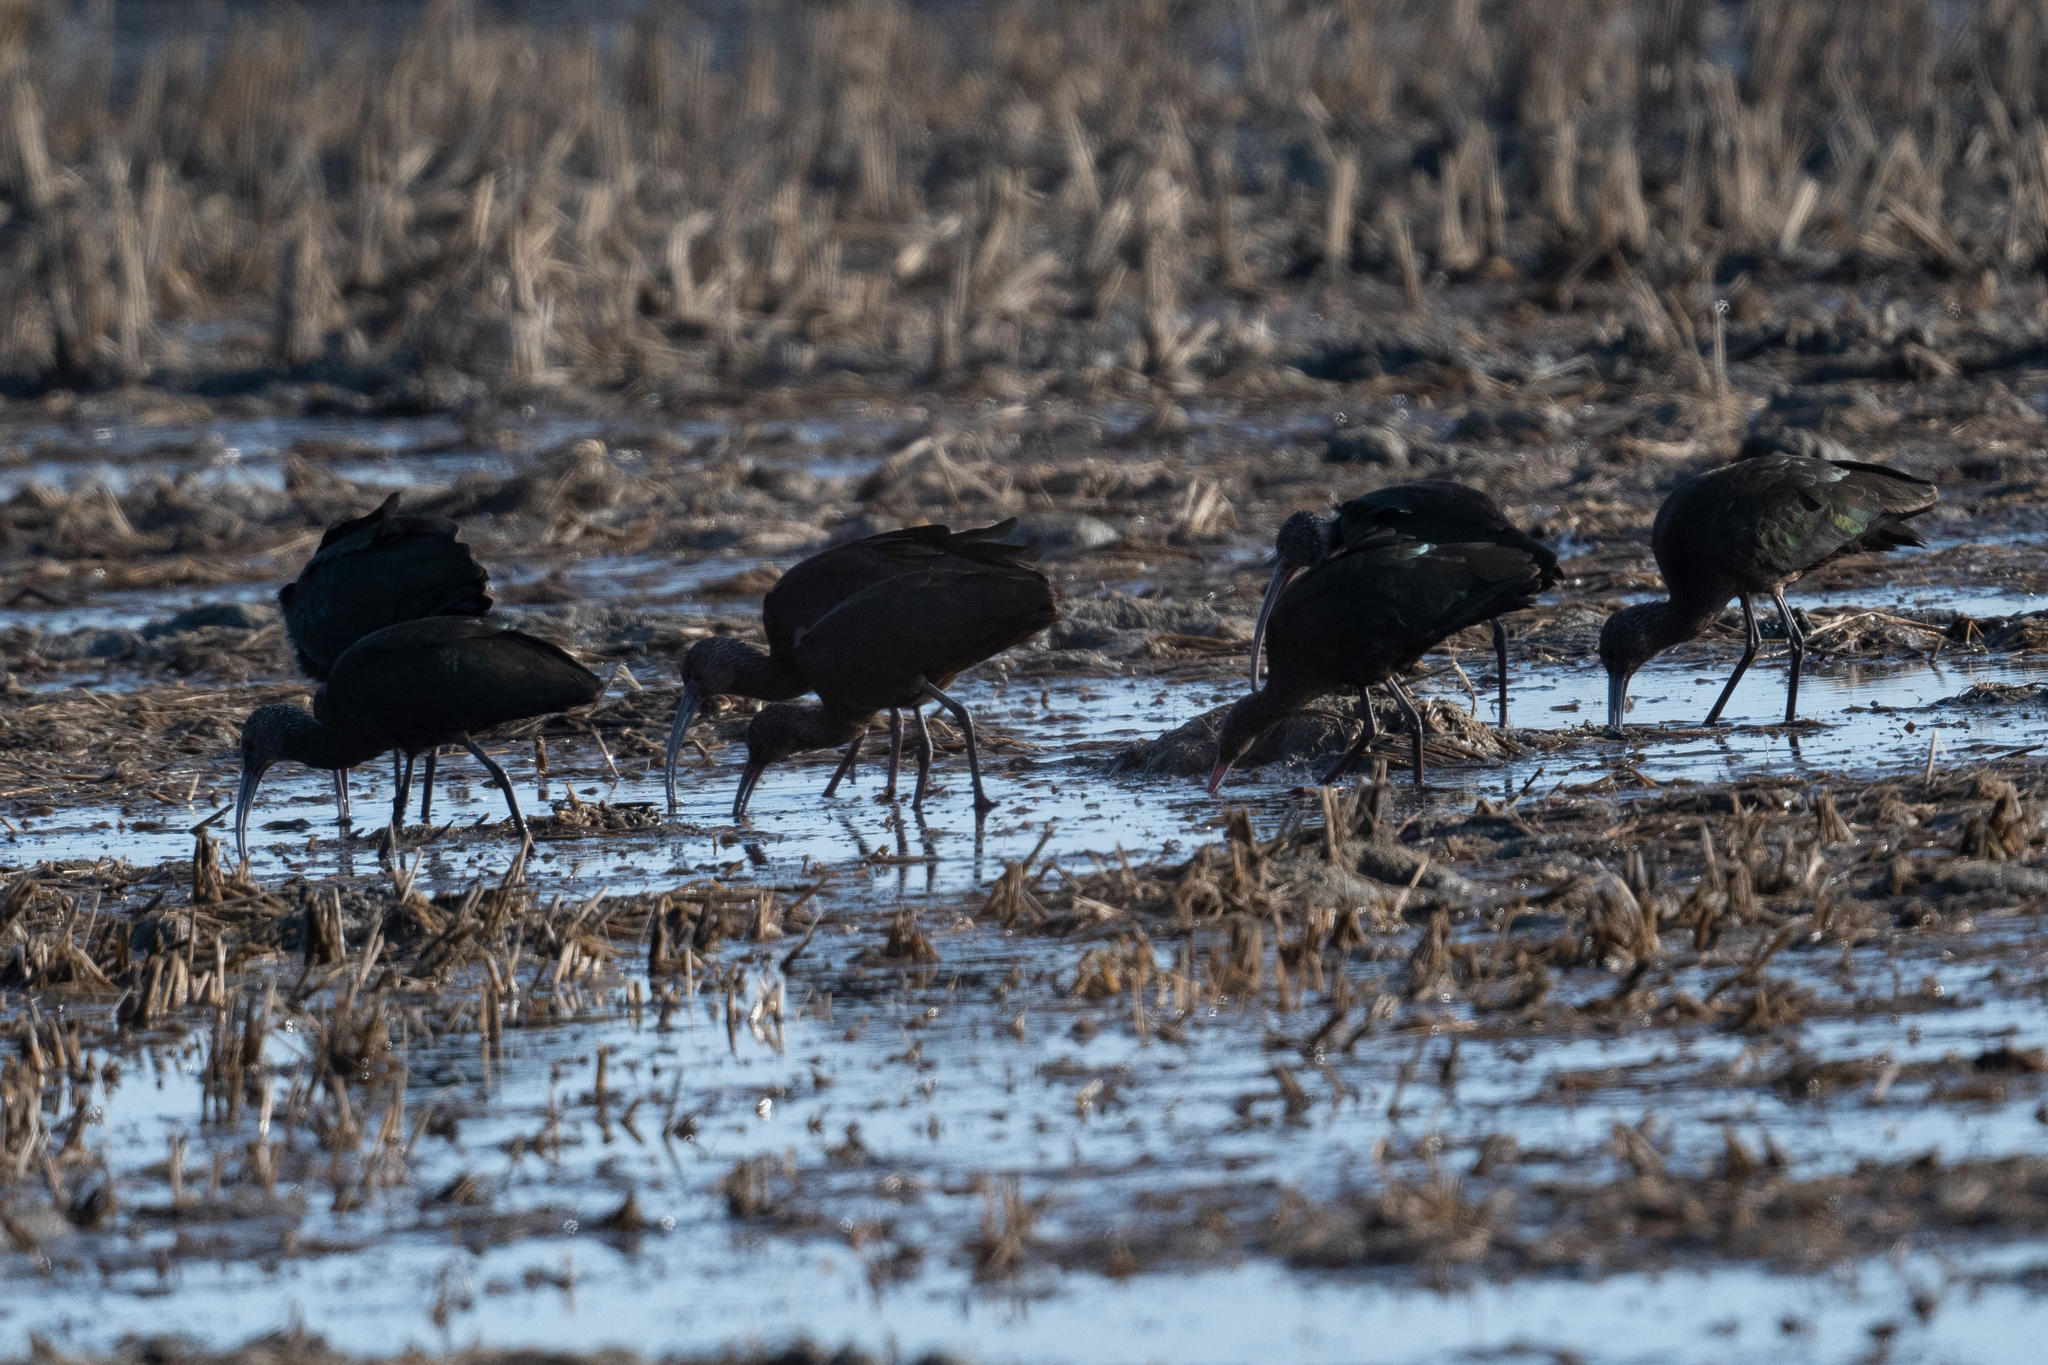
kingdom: Animalia
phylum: Chordata
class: Aves
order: Pelecaniformes
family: Threskiornithidae
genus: Plegadis
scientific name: Plegadis chihi
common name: White-faced ibis
